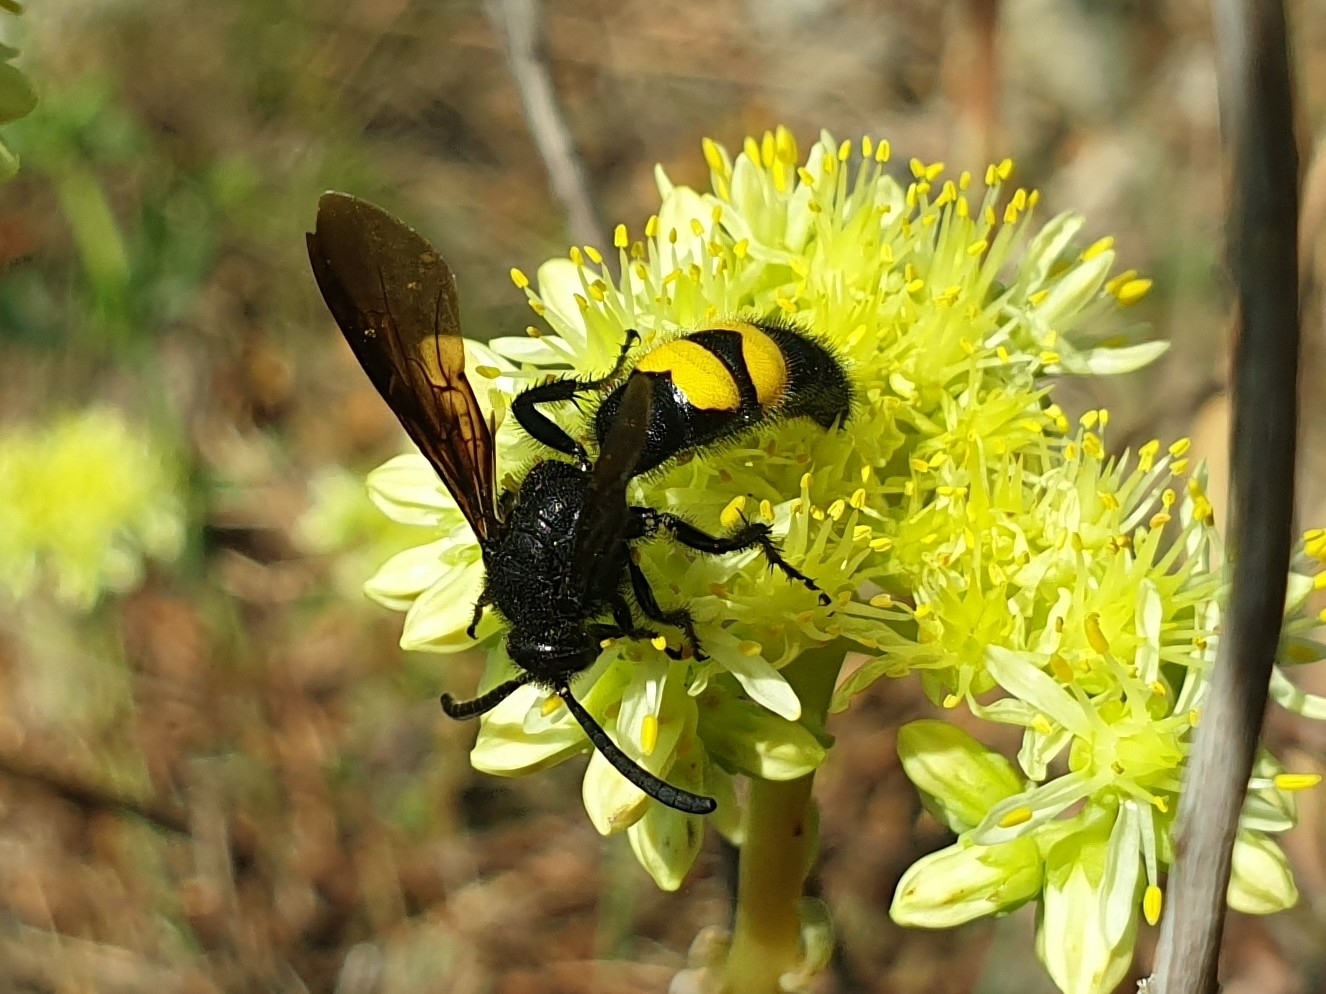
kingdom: Animalia
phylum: Arthropoda
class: Insecta
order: Hymenoptera
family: Scoliidae
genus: Scolia
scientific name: Scolia hirta
